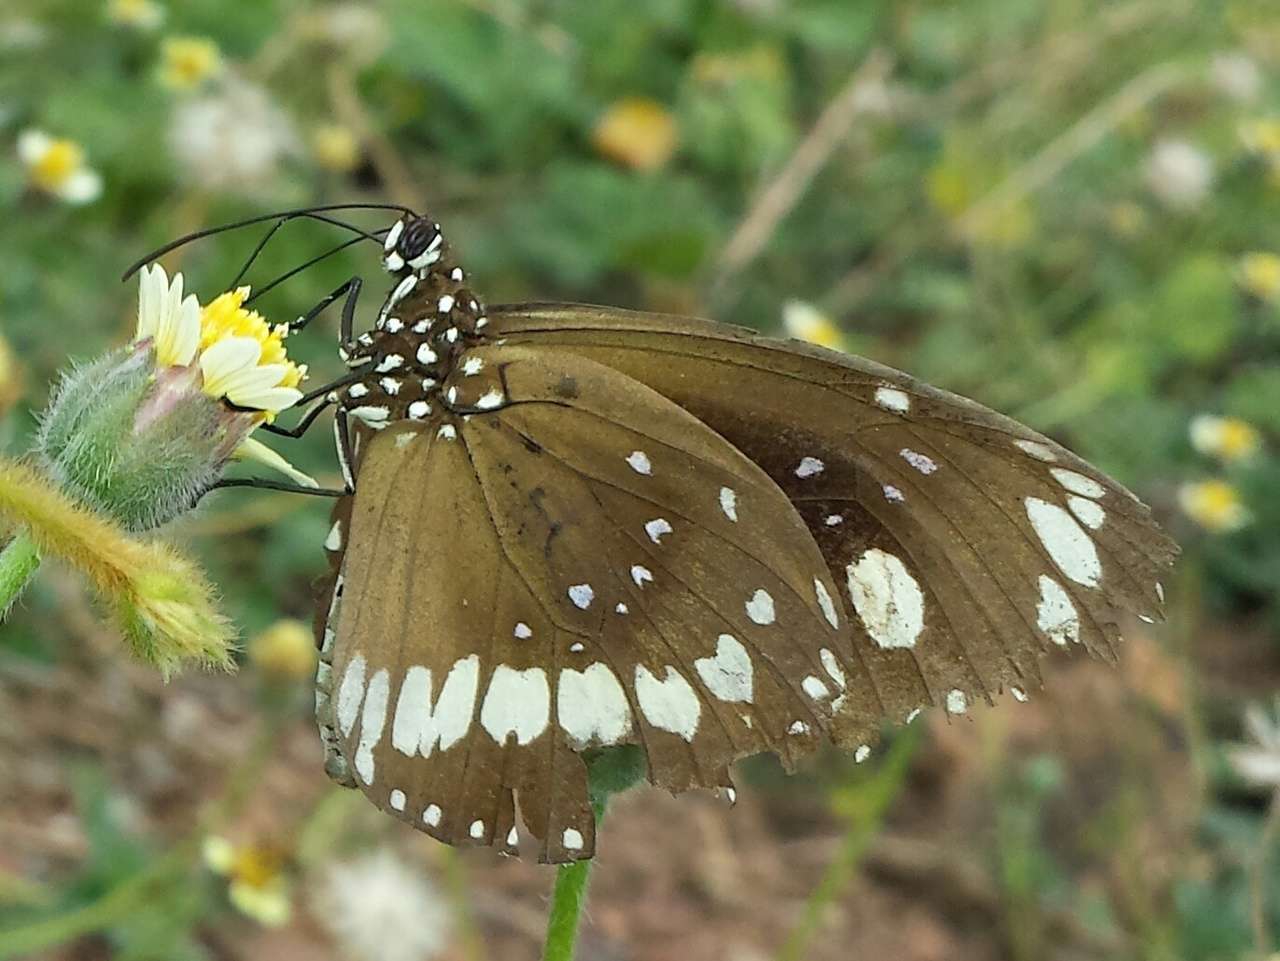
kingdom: Animalia
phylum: Arthropoda
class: Insecta
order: Lepidoptera
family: Nymphalidae
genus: Euploea
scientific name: Euploea core
